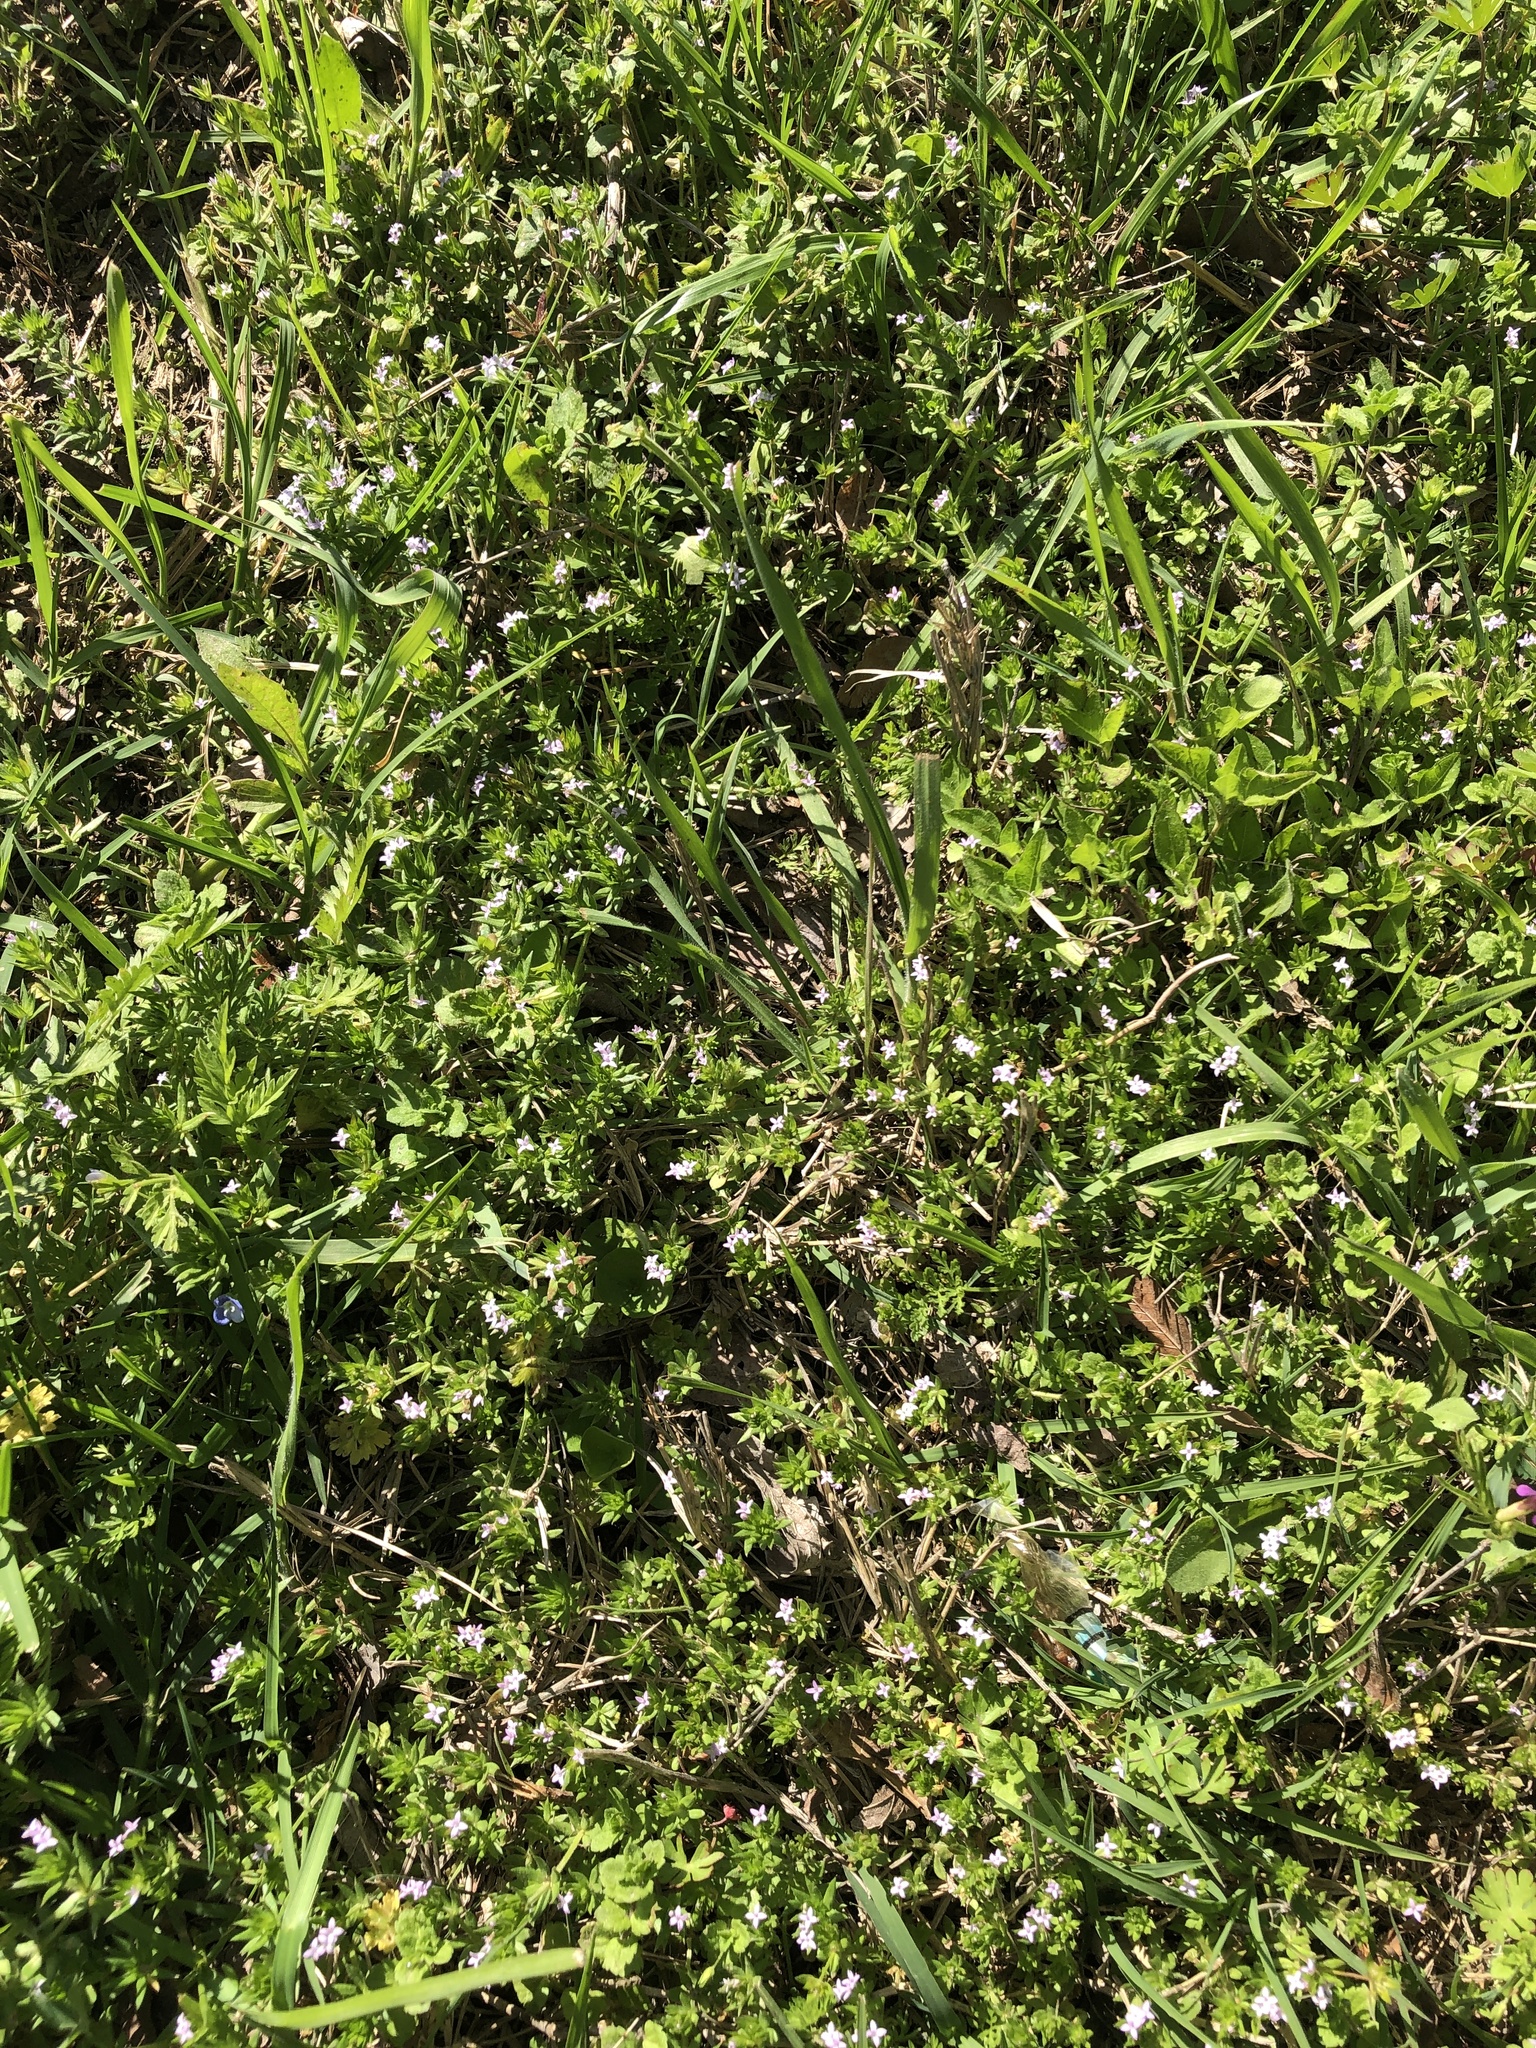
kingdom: Plantae
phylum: Tracheophyta
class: Magnoliopsida
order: Gentianales
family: Rubiaceae
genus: Sherardia
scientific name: Sherardia arvensis
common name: Field madder
